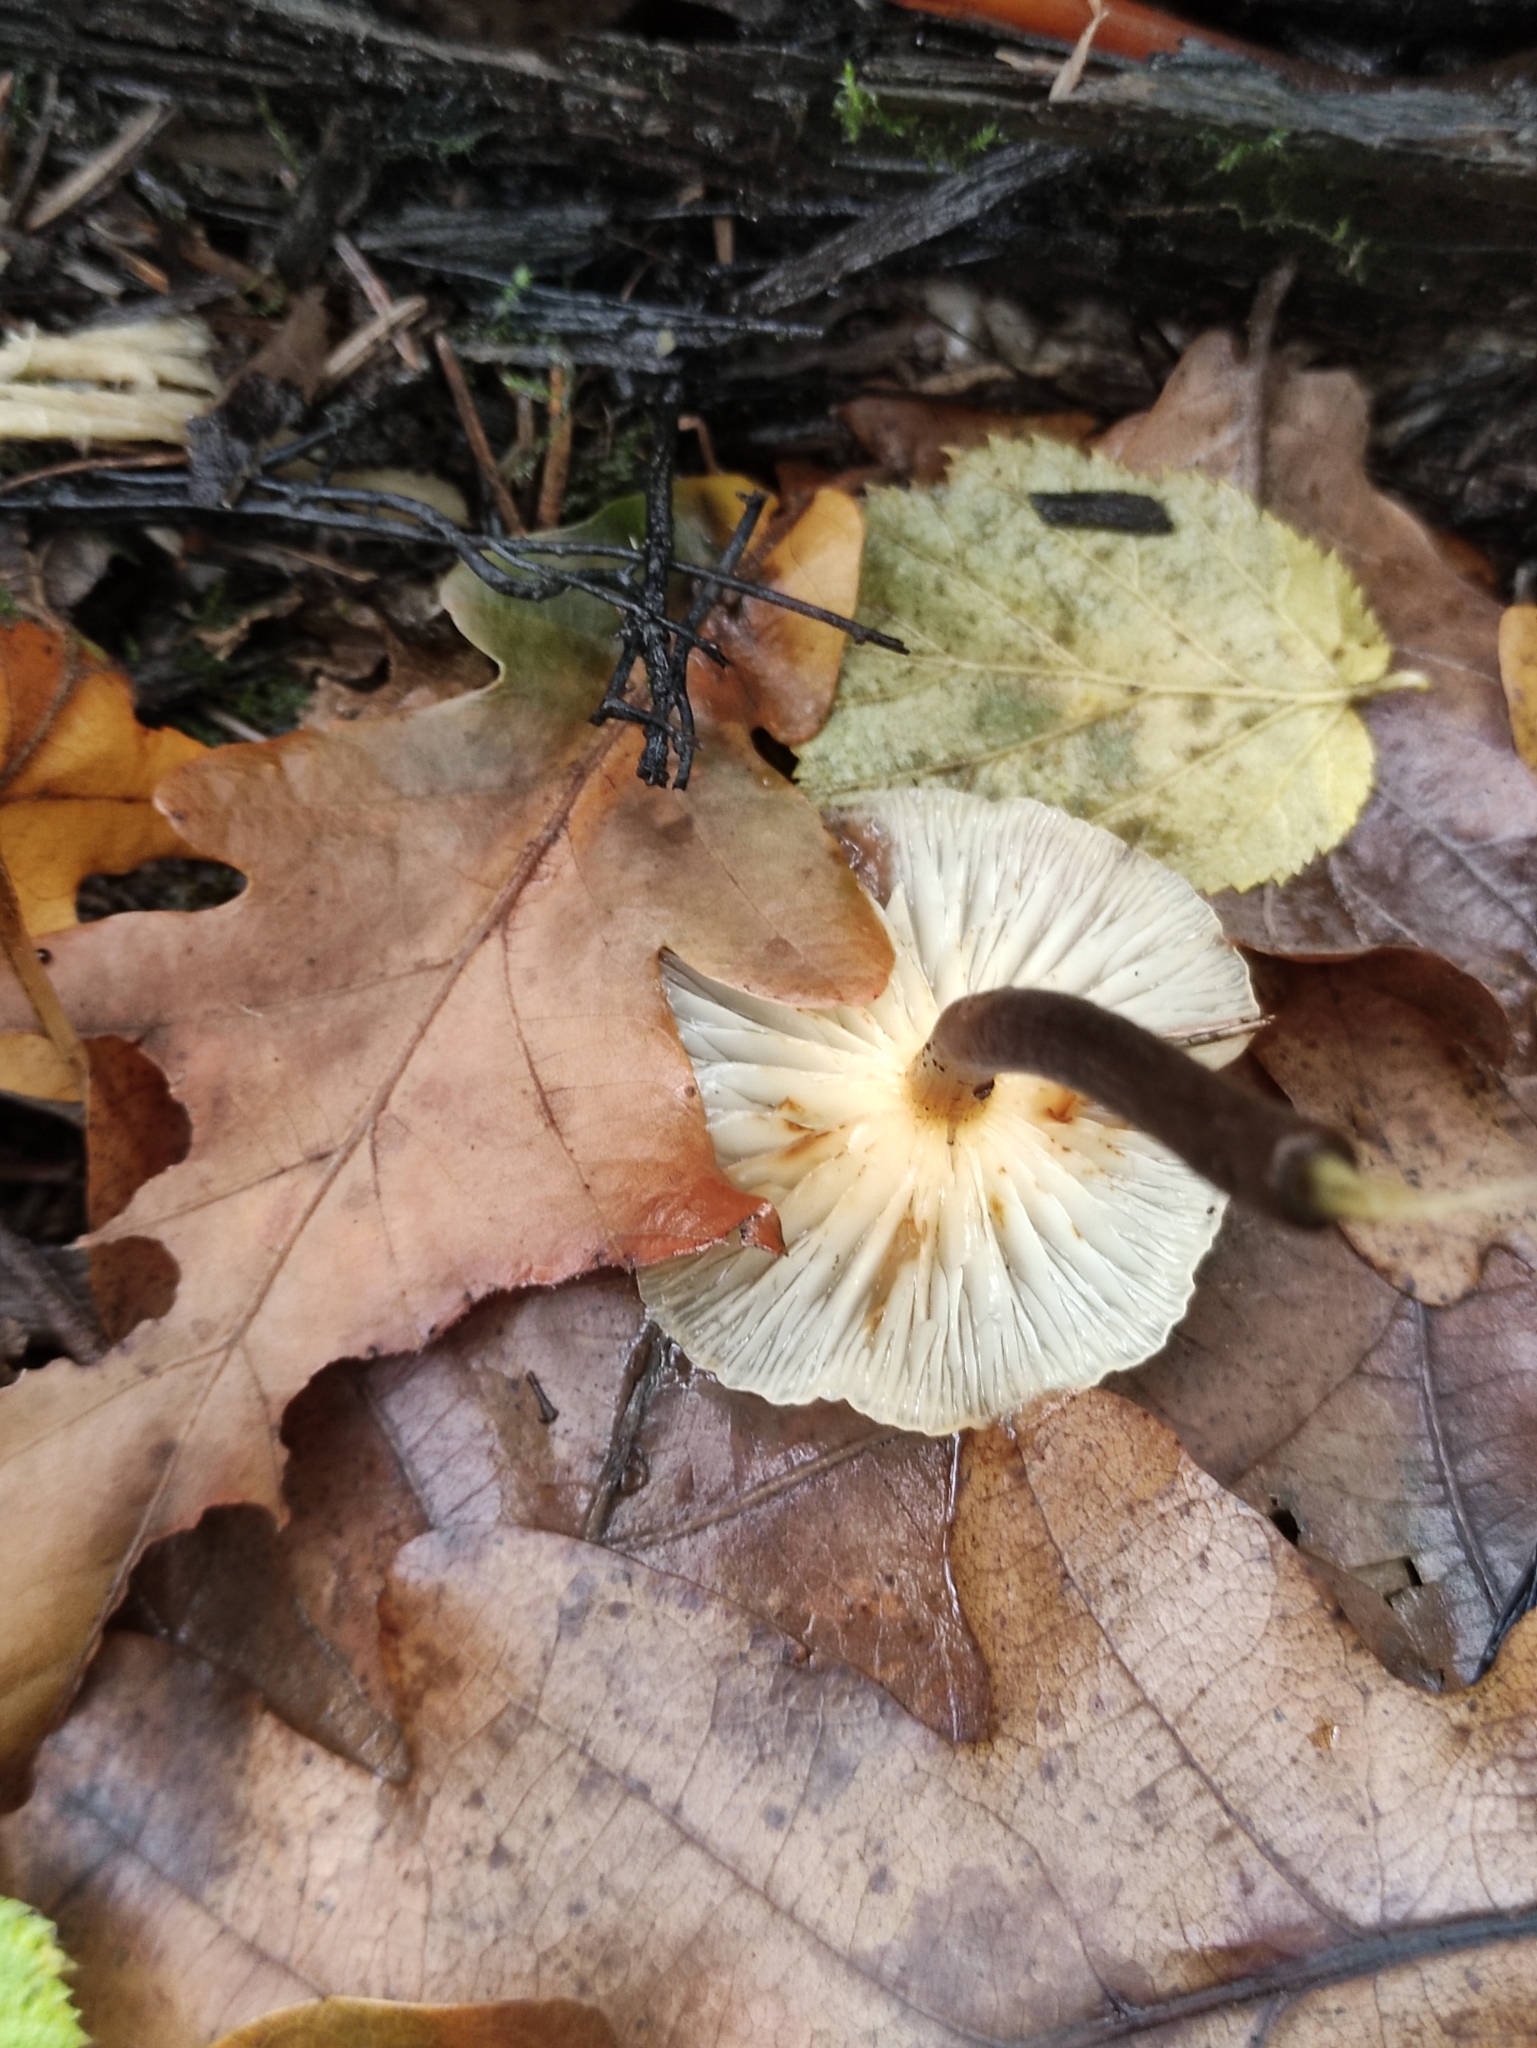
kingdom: Fungi
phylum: Basidiomycota
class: Agaricomycetes
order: Agaricales
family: Physalacriaceae
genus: Flammulina
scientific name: Flammulina
